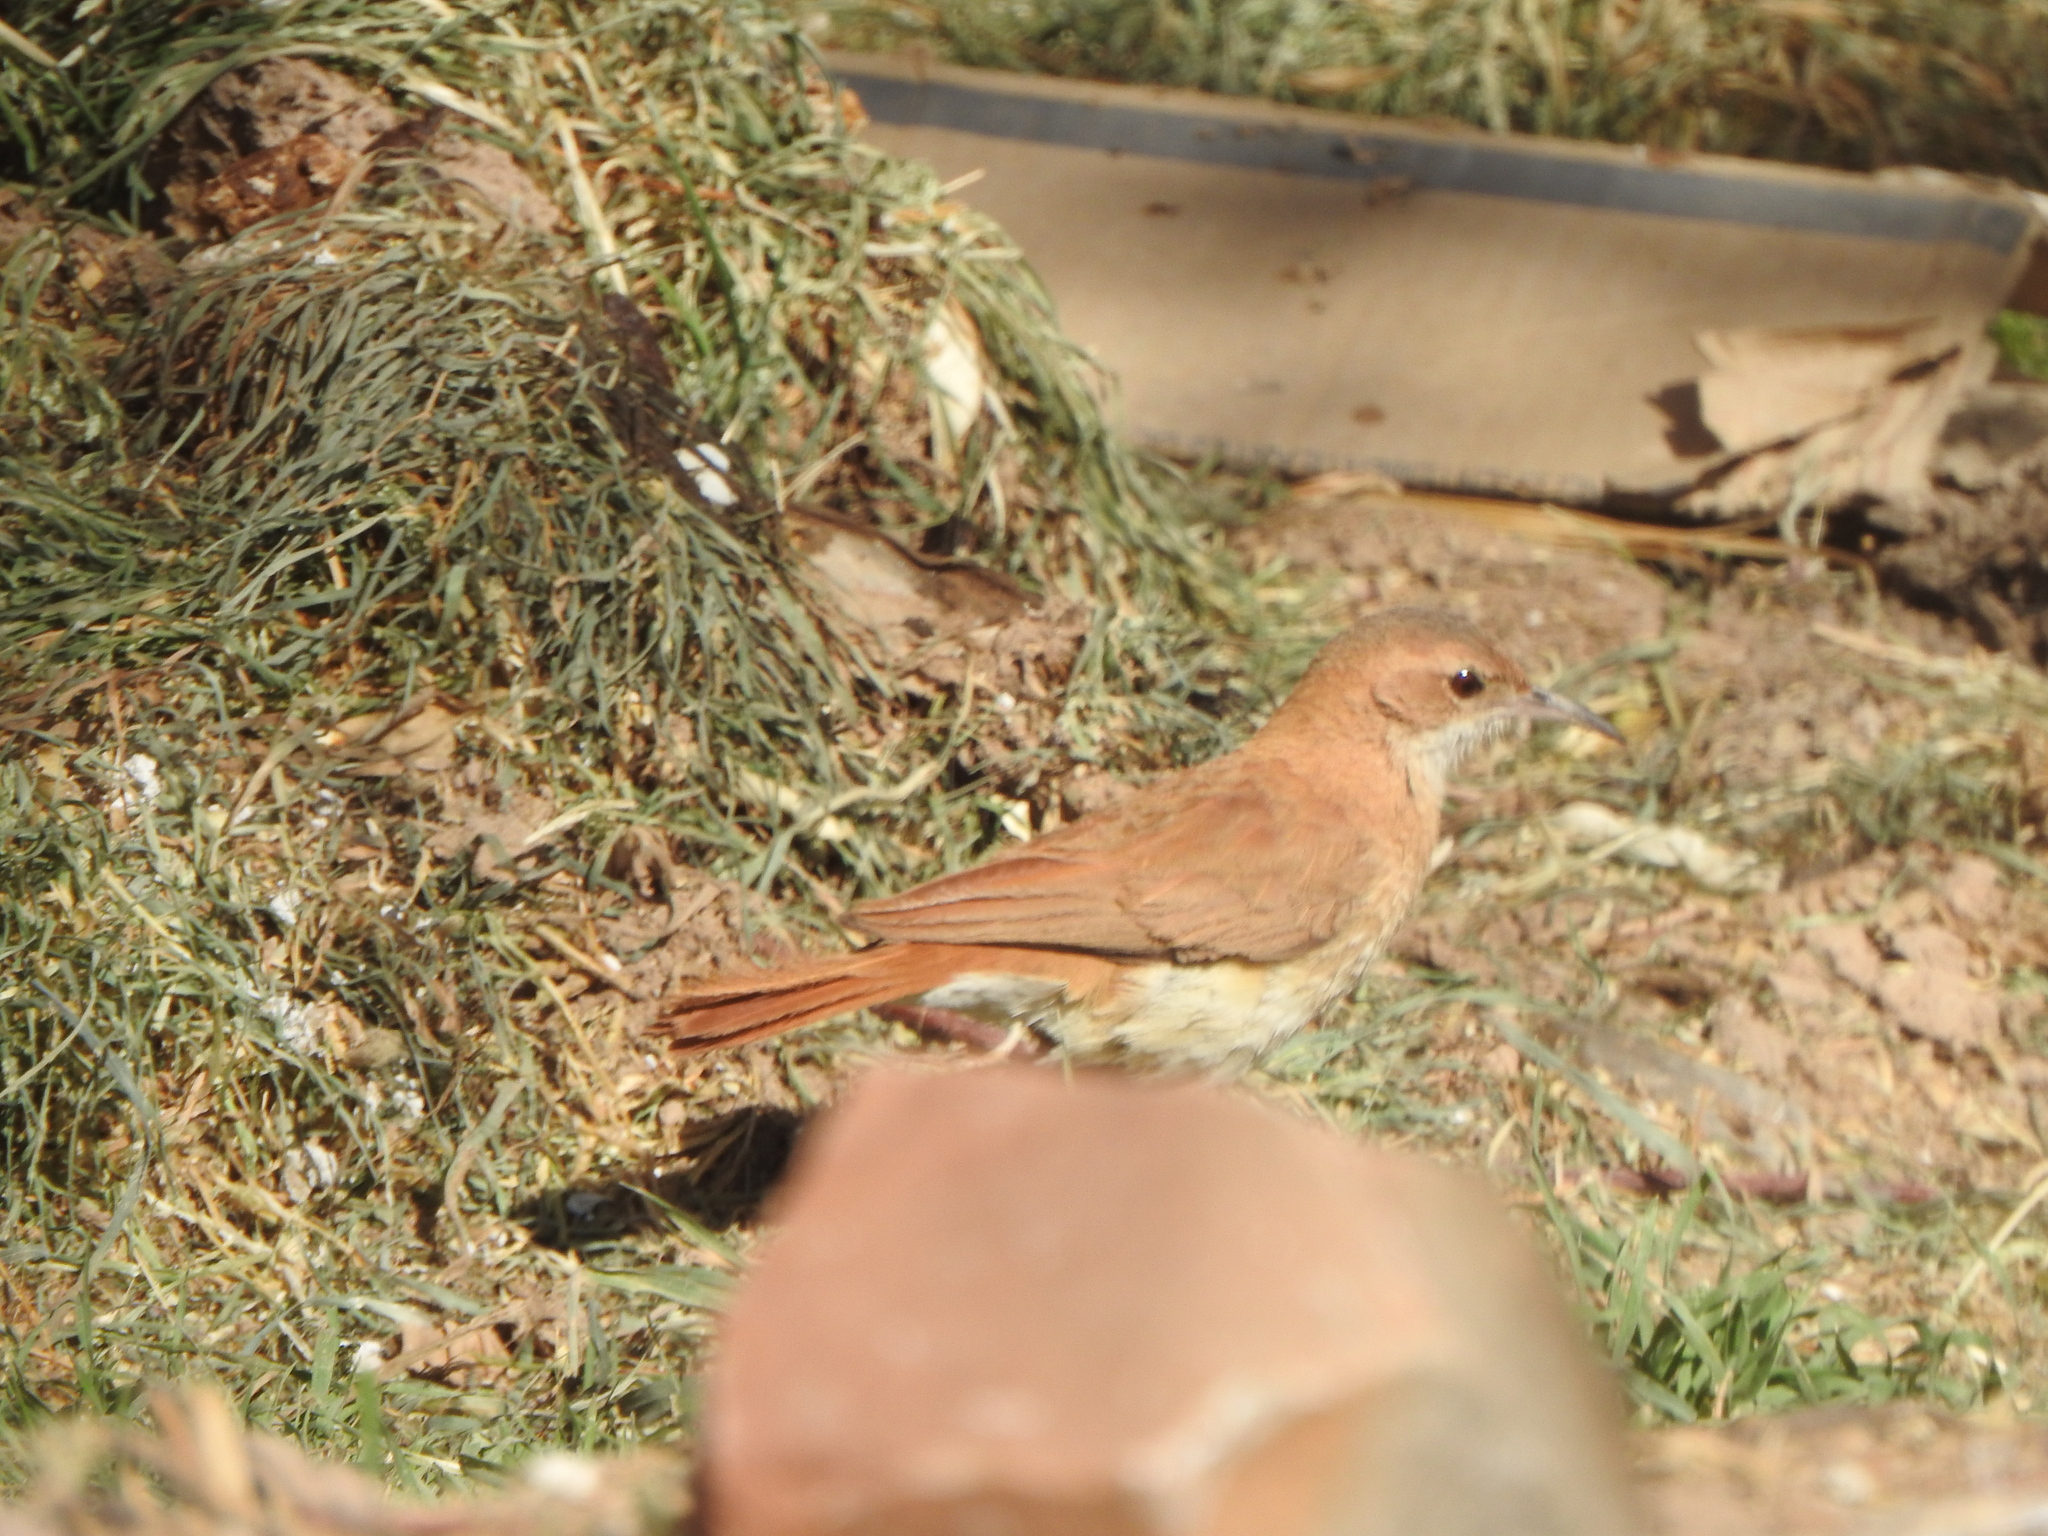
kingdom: Animalia
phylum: Chordata
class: Aves
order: Passeriformes
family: Furnariidae
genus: Furnarius
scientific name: Furnarius rufus
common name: Rufous hornero
